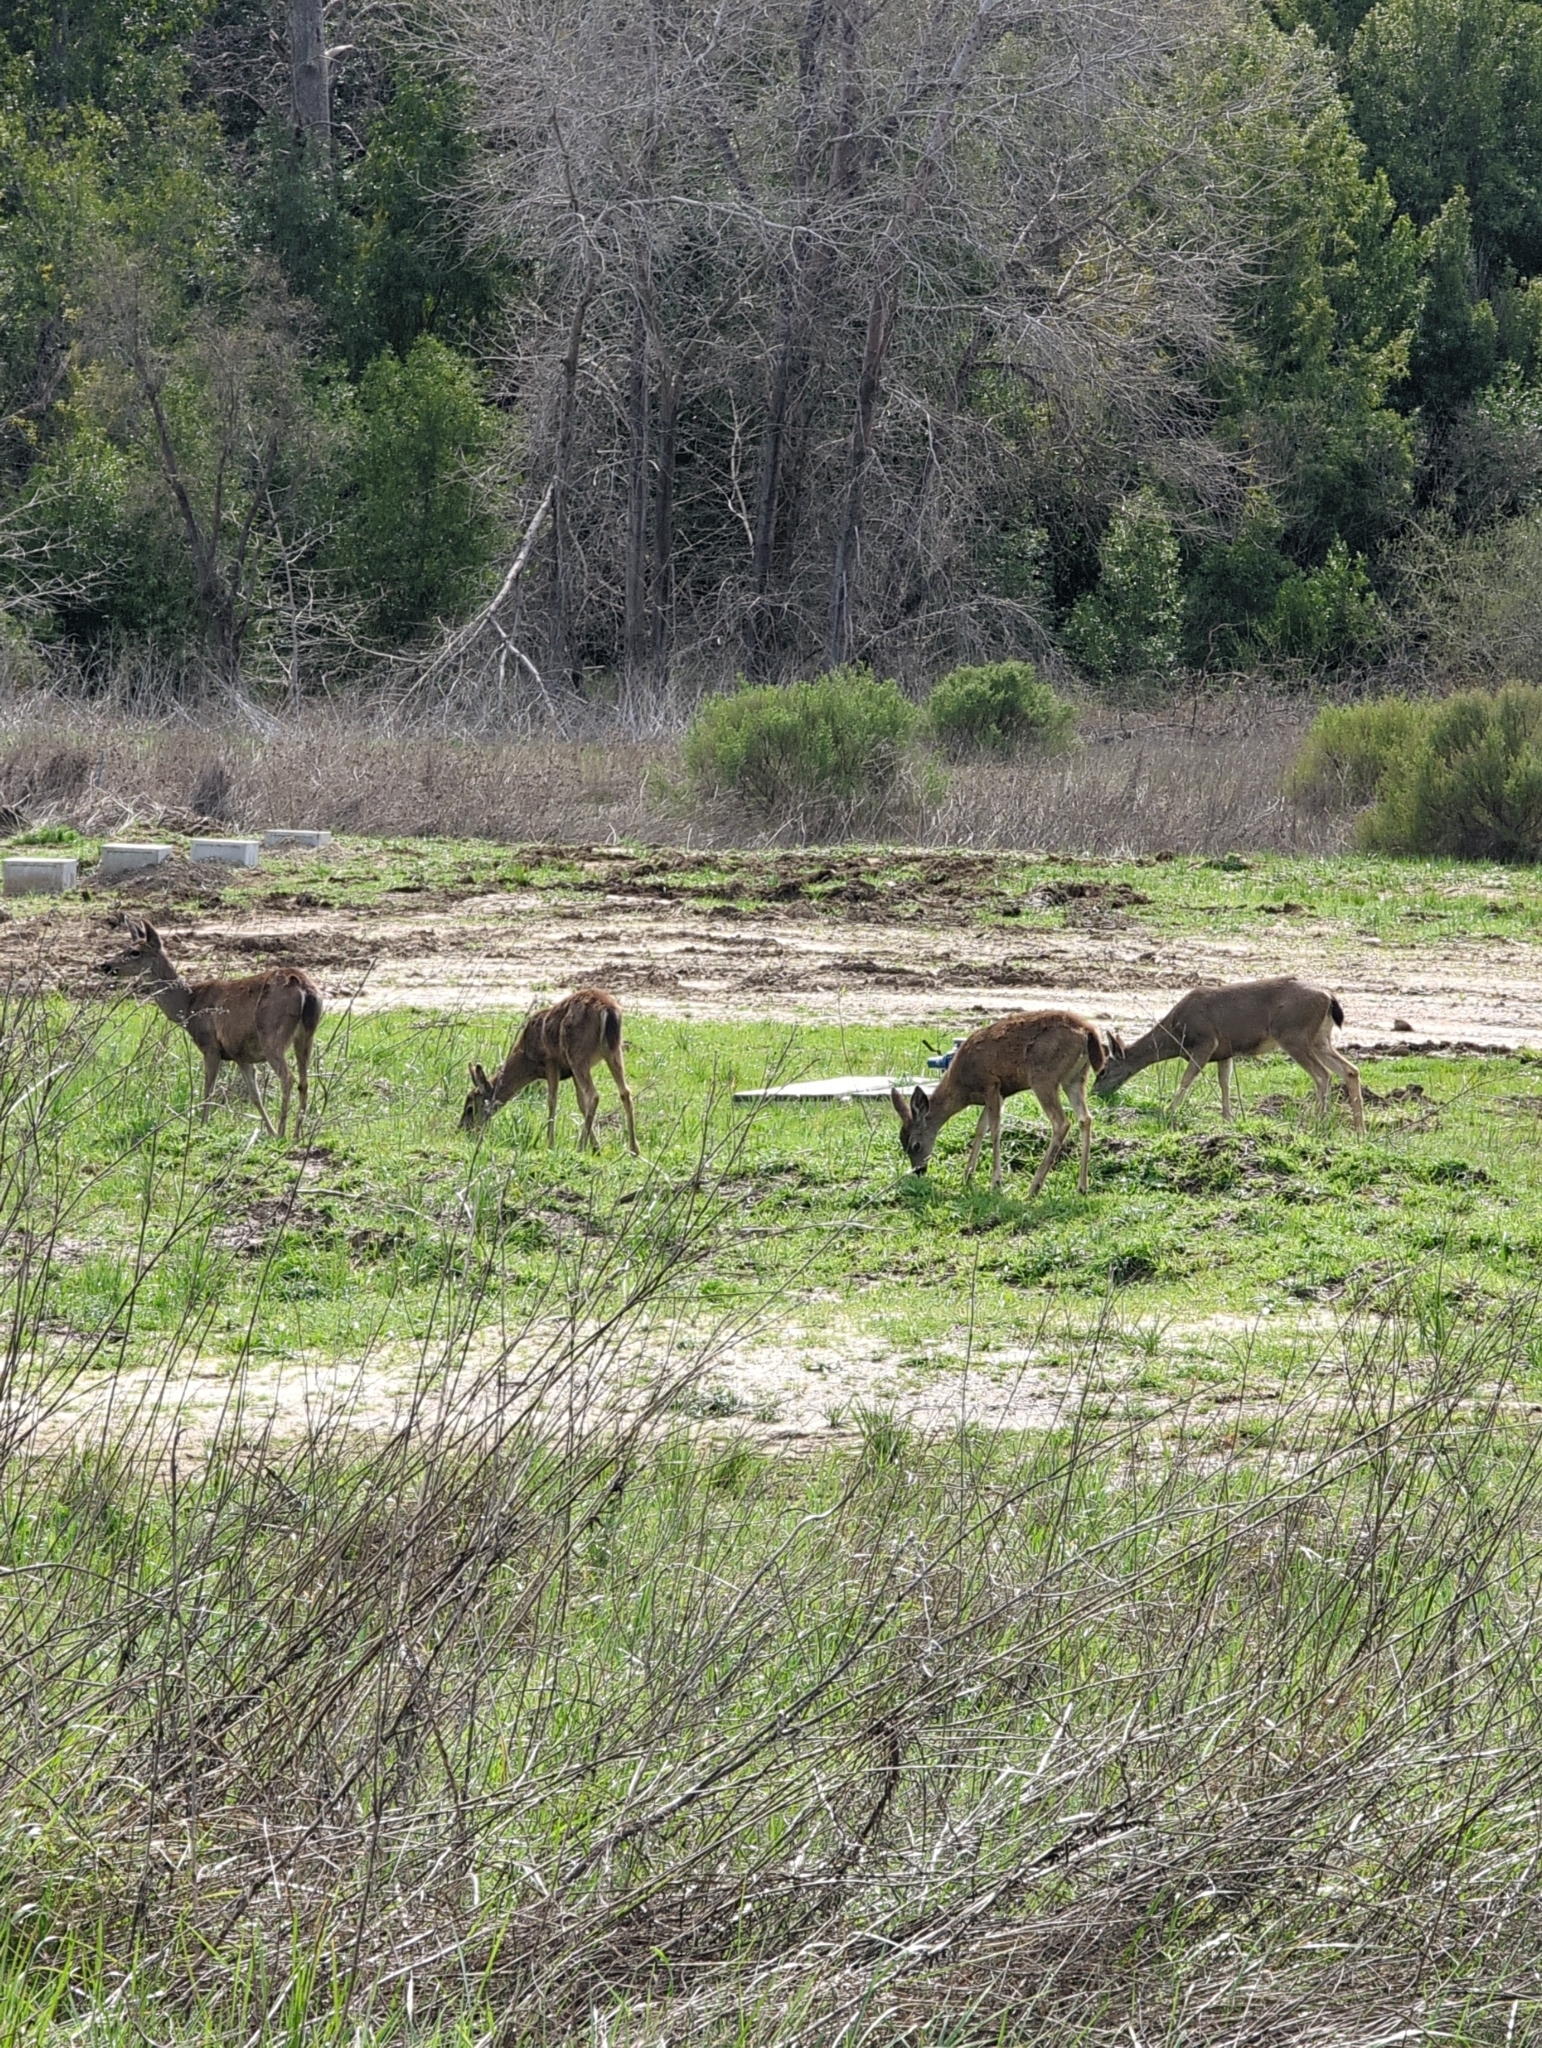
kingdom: Animalia
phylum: Chordata
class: Mammalia
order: Artiodactyla
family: Cervidae
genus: Odocoileus
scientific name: Odocoileus hemionus
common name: Mule deer
